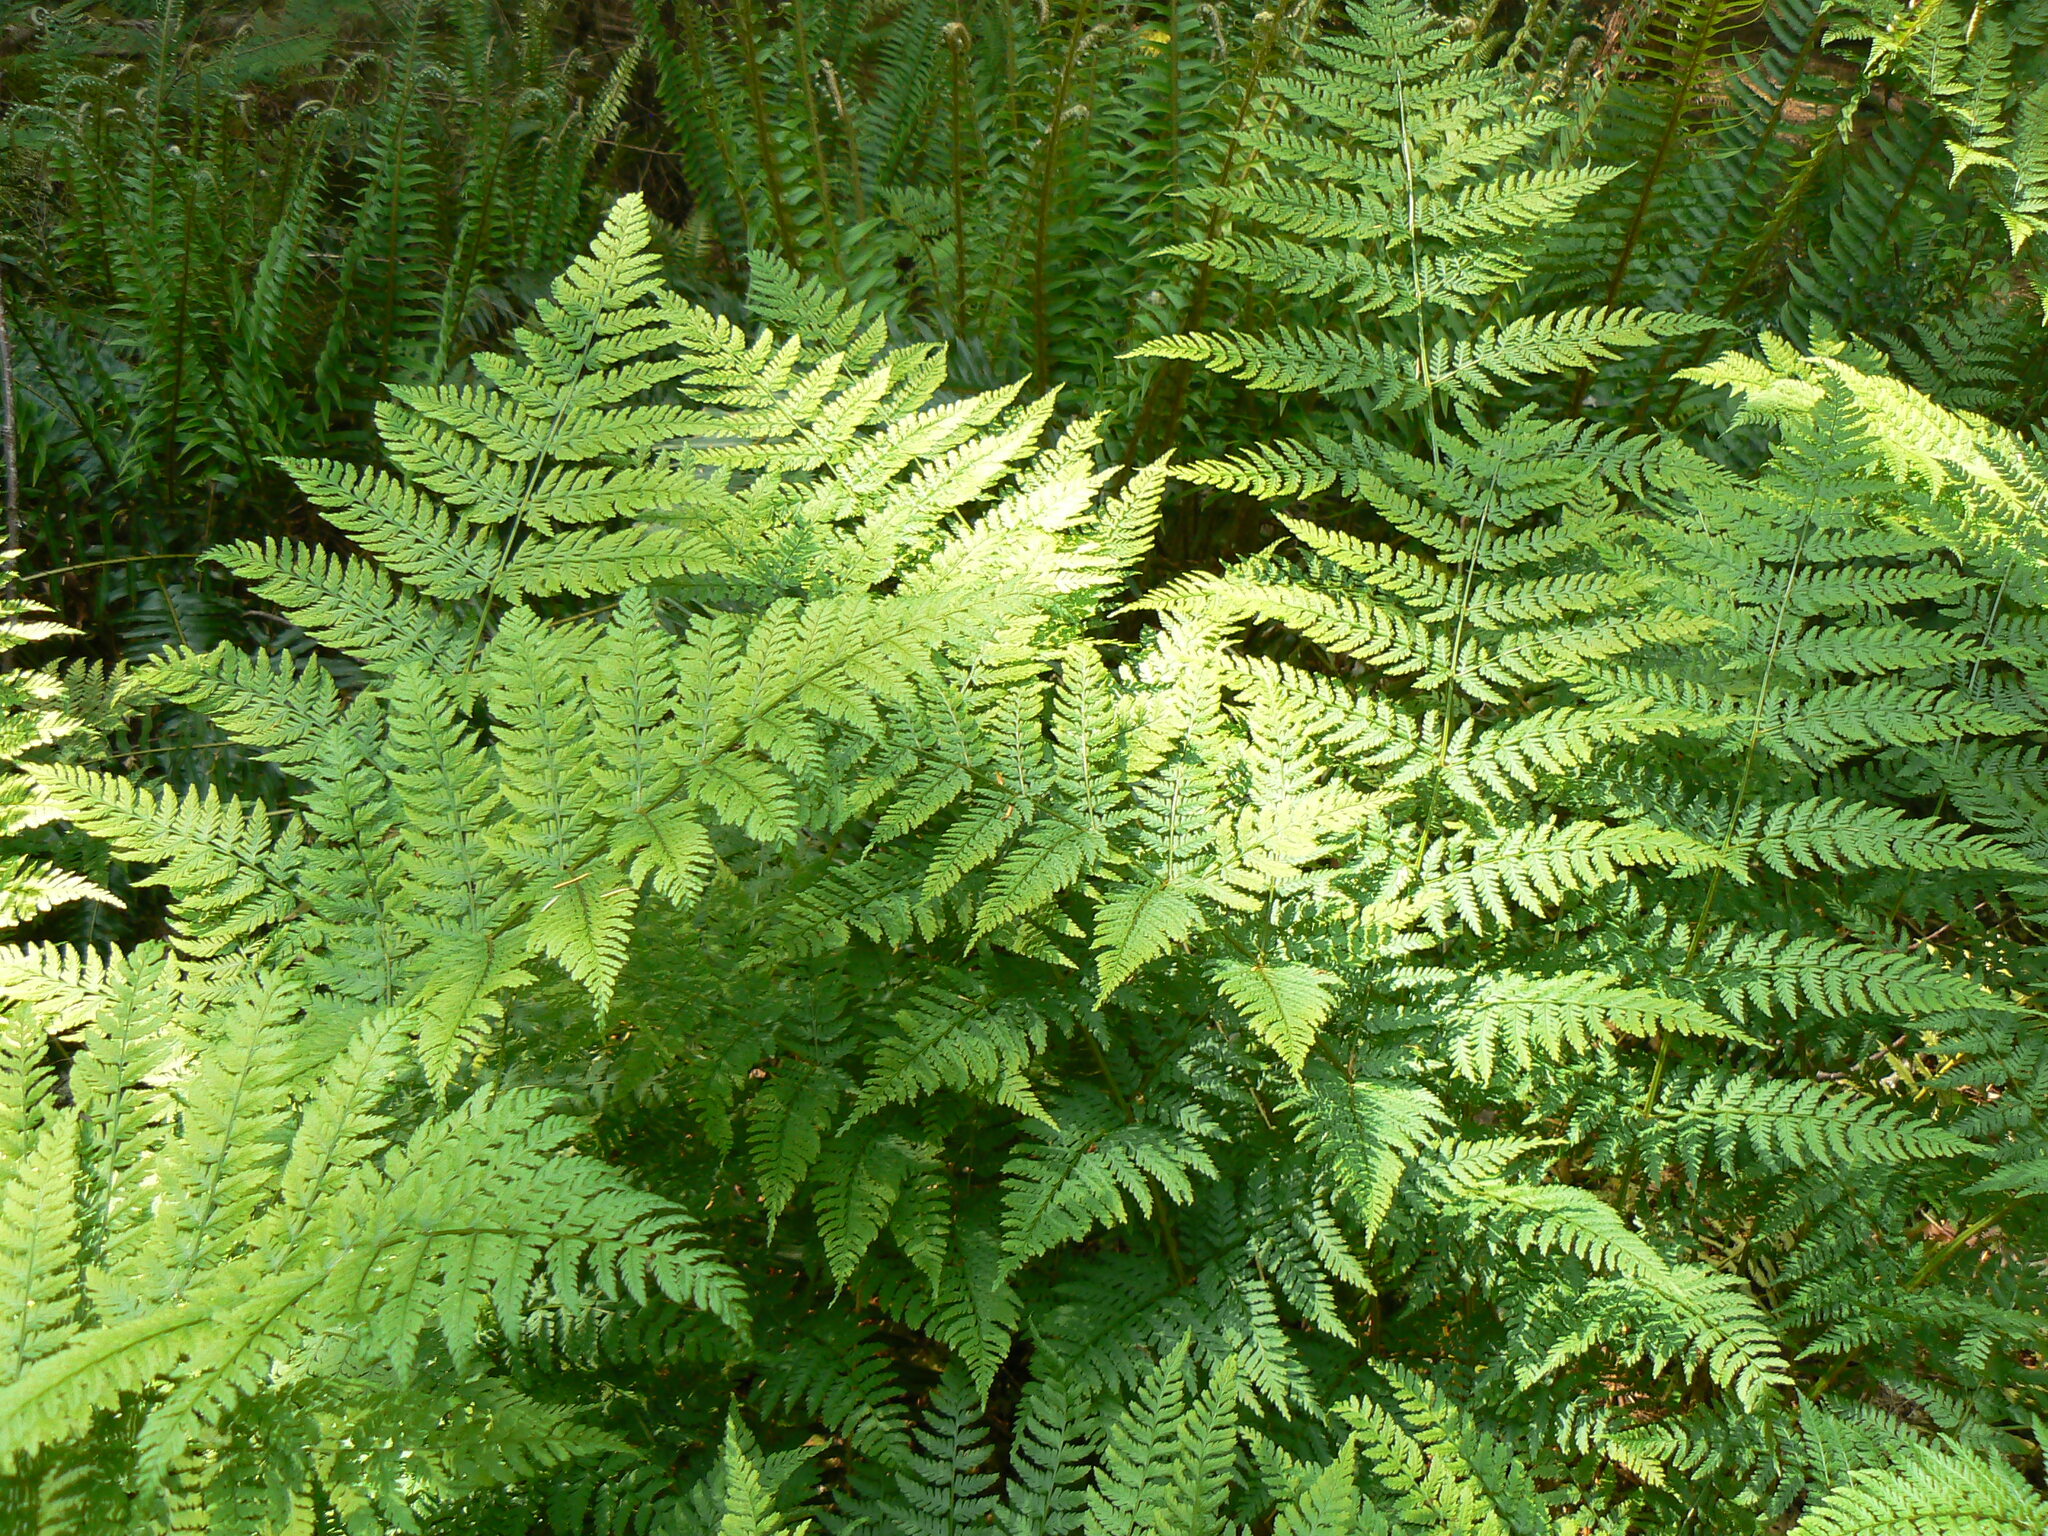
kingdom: Plantae
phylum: Tracheophyta
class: Polypodiopsida
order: Polypodiales
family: Dryopteridaceae
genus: Dryopteris
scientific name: Dryopteris expansa
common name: Northern buckler fern
